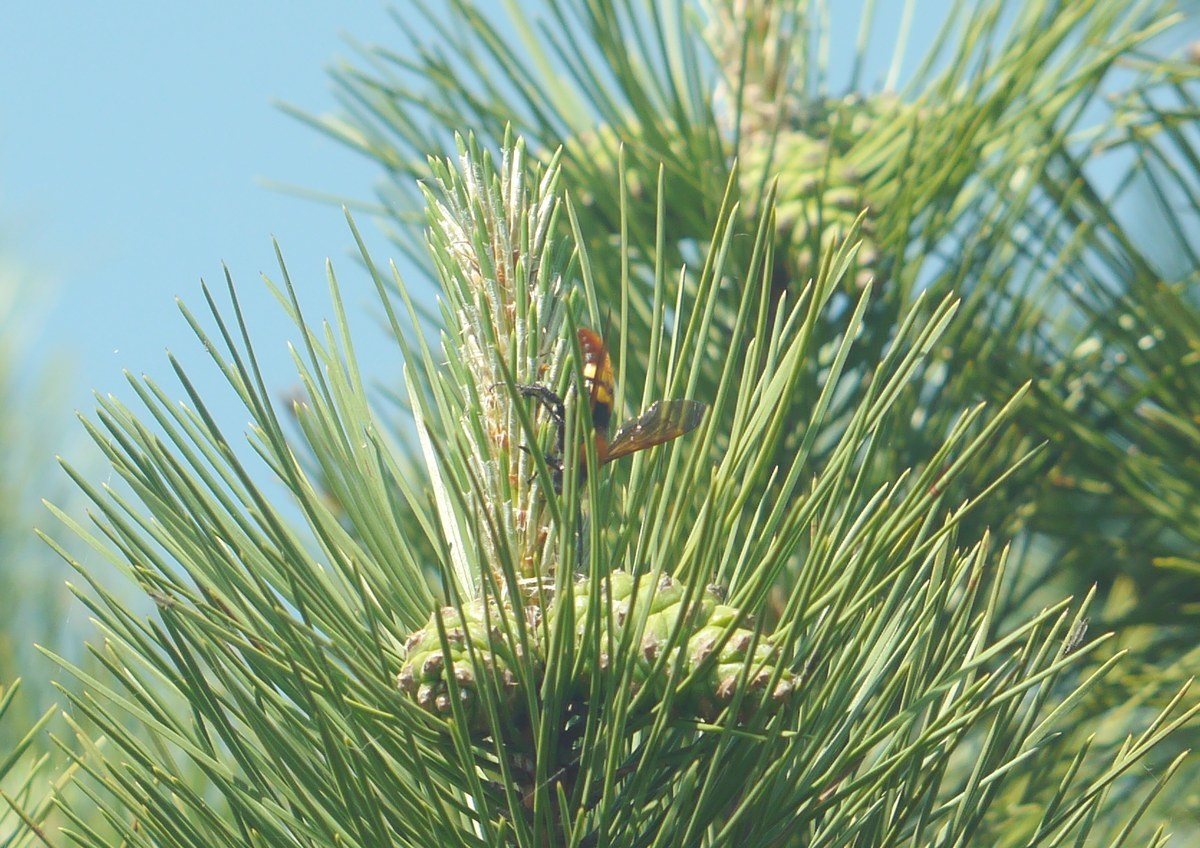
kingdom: Animalia
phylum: Arthropoda
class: Insecta
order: Hymenoptera
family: Scoliidae
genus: Megascolia
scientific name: Megascolia maculata
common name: Mammoth wasp
